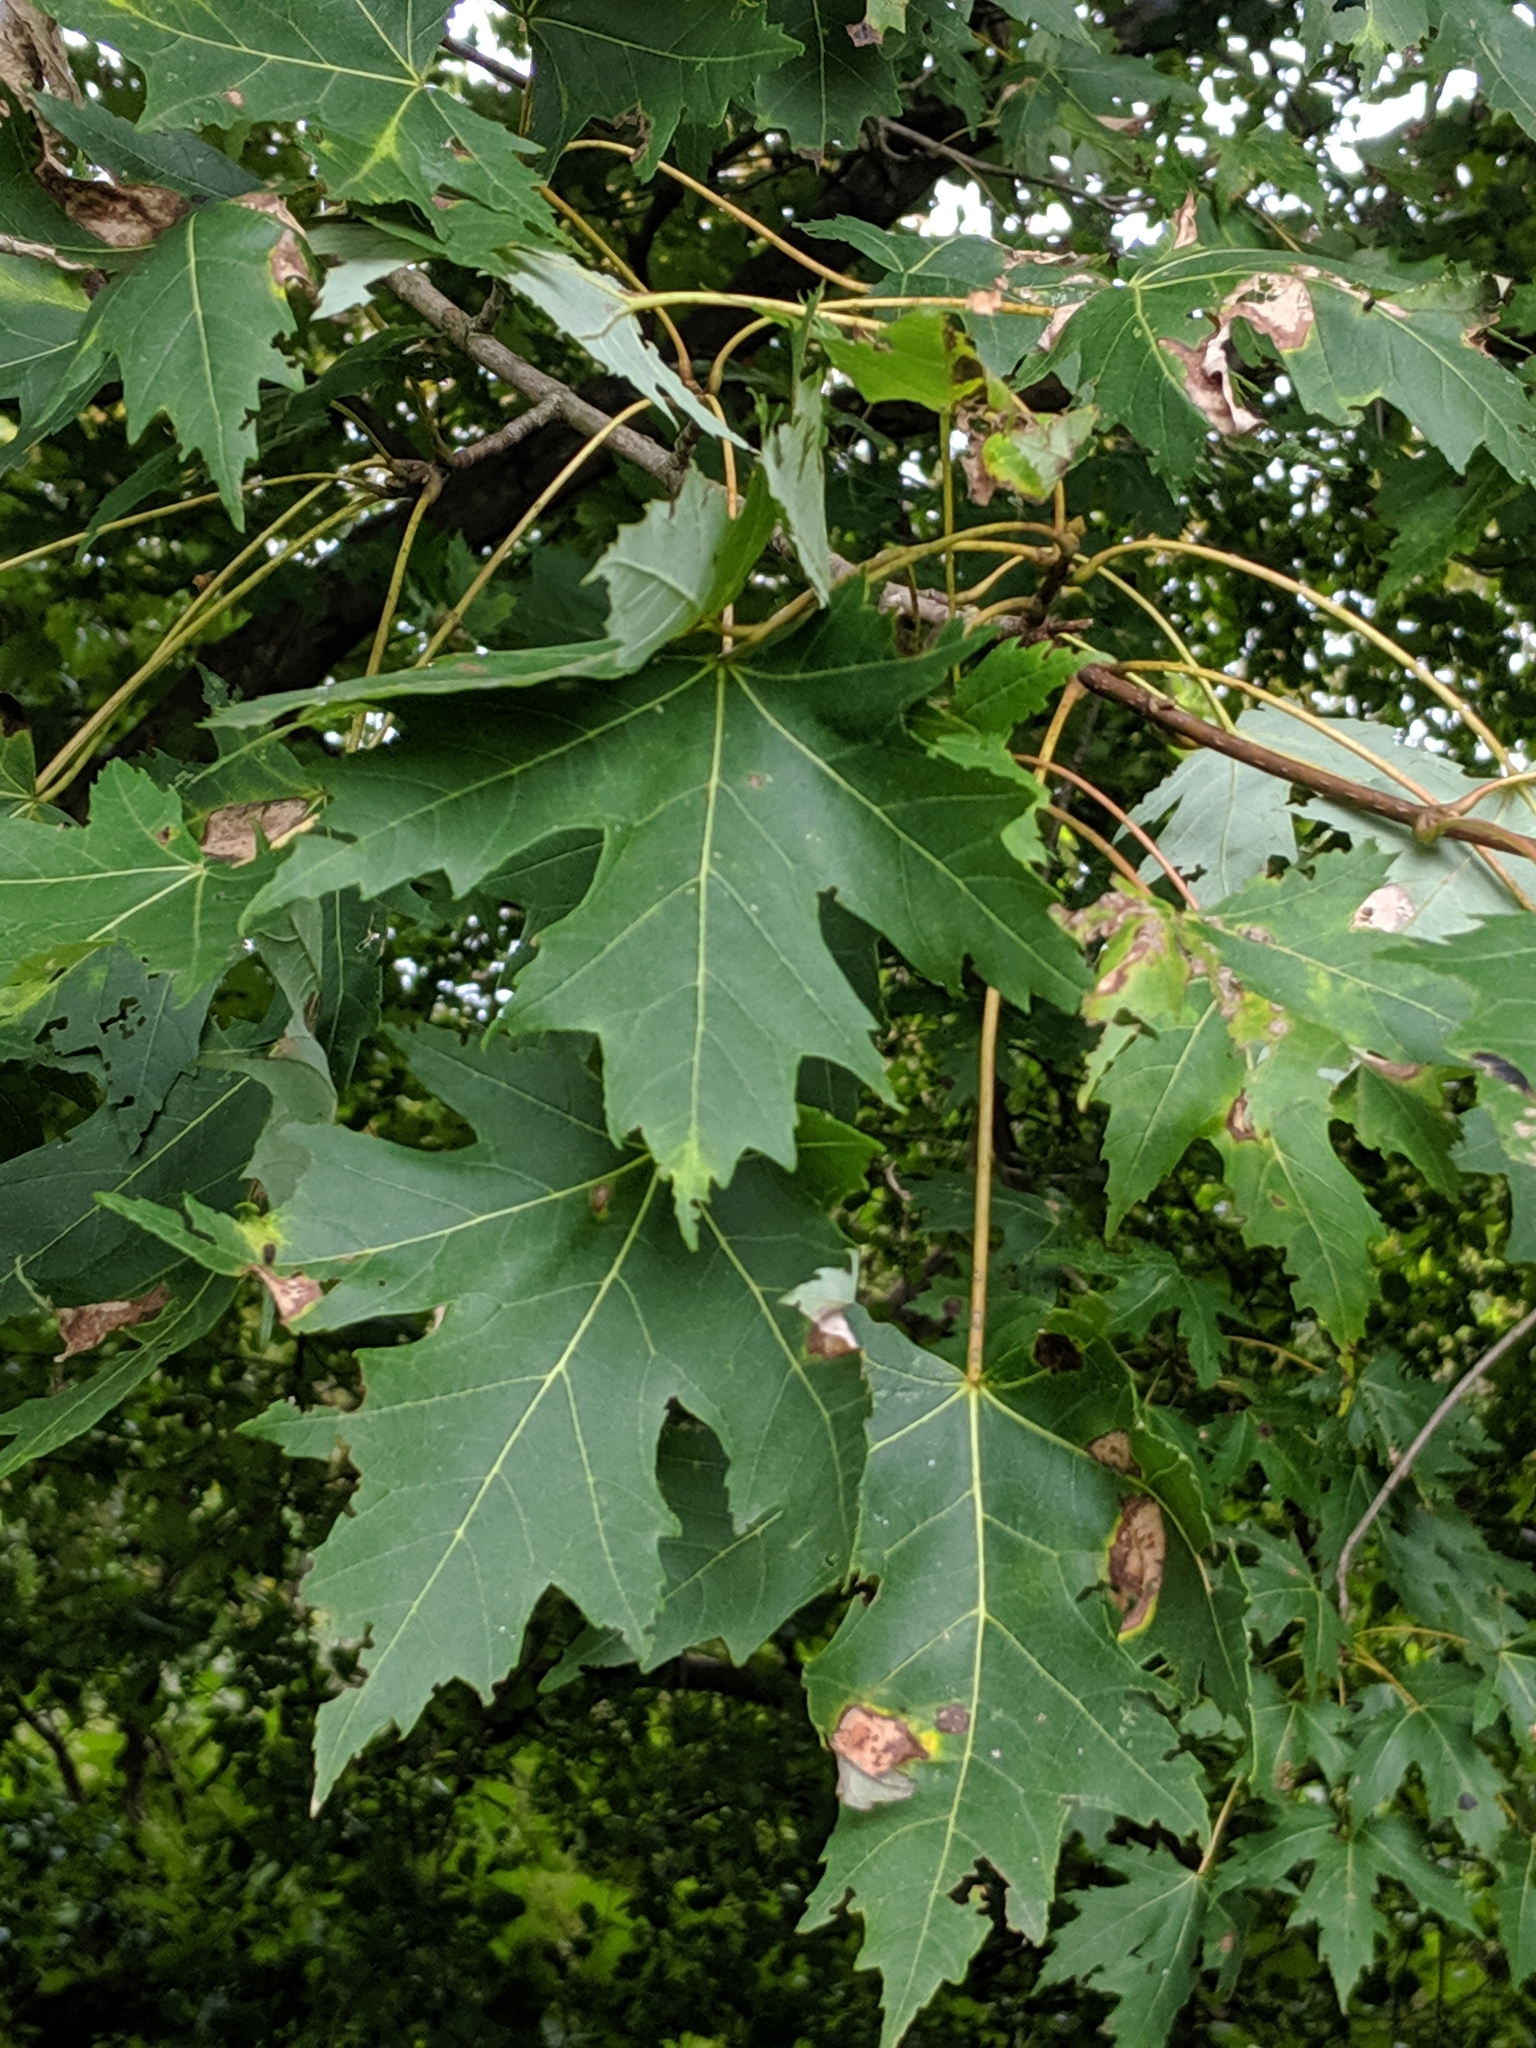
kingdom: Plantae
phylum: Tracheophyta
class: Magnoliopsida
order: Sapindales
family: Sapindaceae
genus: Acer
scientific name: Acer saccharinum
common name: Silver maple
